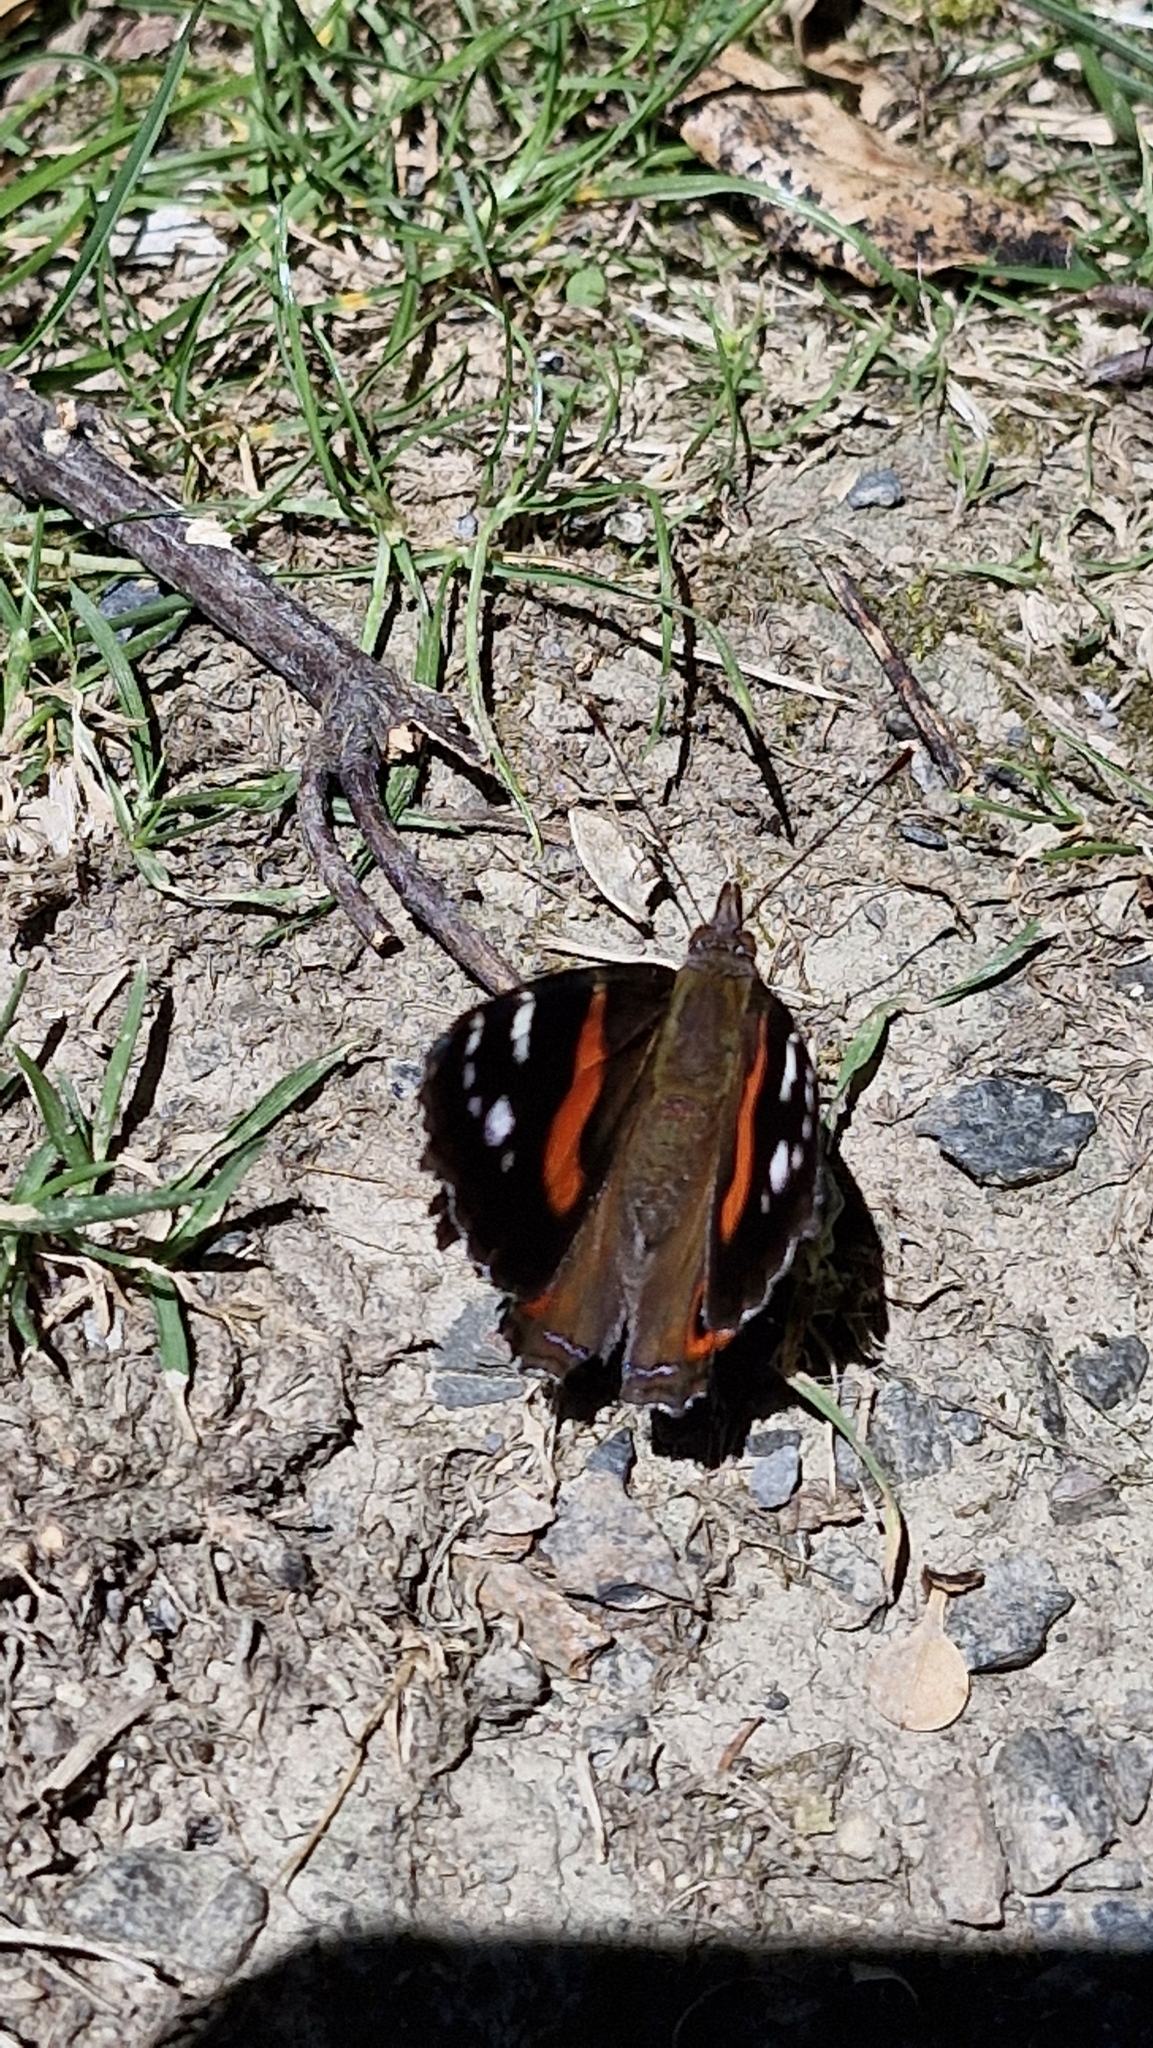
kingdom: Animalia
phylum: Arthropoda
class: Insecta
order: Lepidoptera
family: Nymphalidae
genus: Vanessa
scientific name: Vanessa gonerilla
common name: New zealand red admiral
